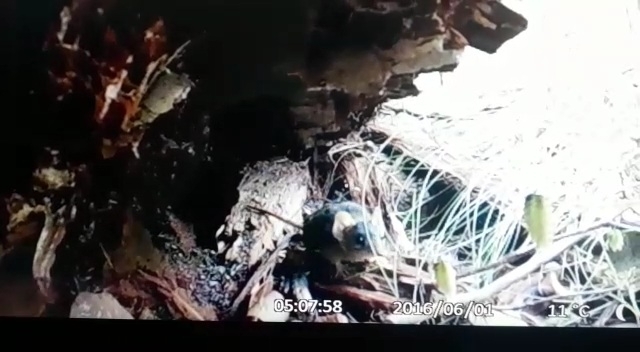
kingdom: Animalia
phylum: Chordata
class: Mammalia
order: Dasyuromorphia
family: Dasyuridae
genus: Antechinus
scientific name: Antechinus flavipes
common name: Yellow-footed antechinus
